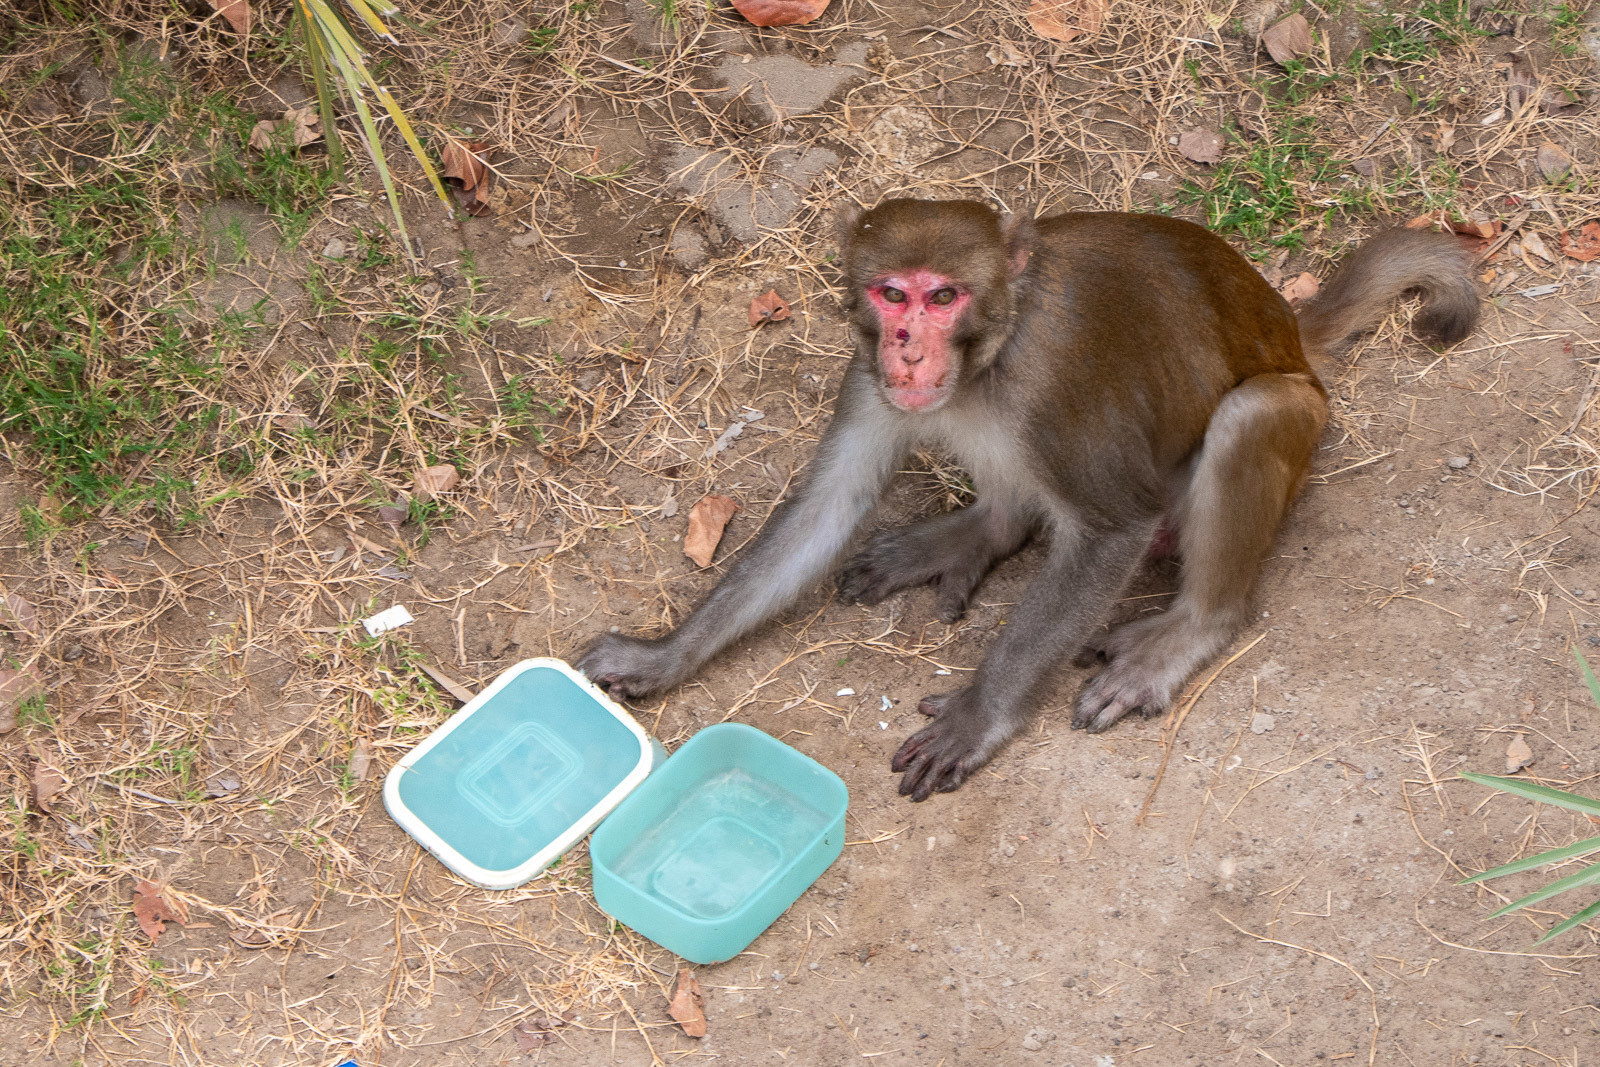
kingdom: Animalia
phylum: Chordata
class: Mammalia
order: Primates
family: Cercopithecidae
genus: Macaca
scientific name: Macaca mulatta
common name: Rhesus monkey
